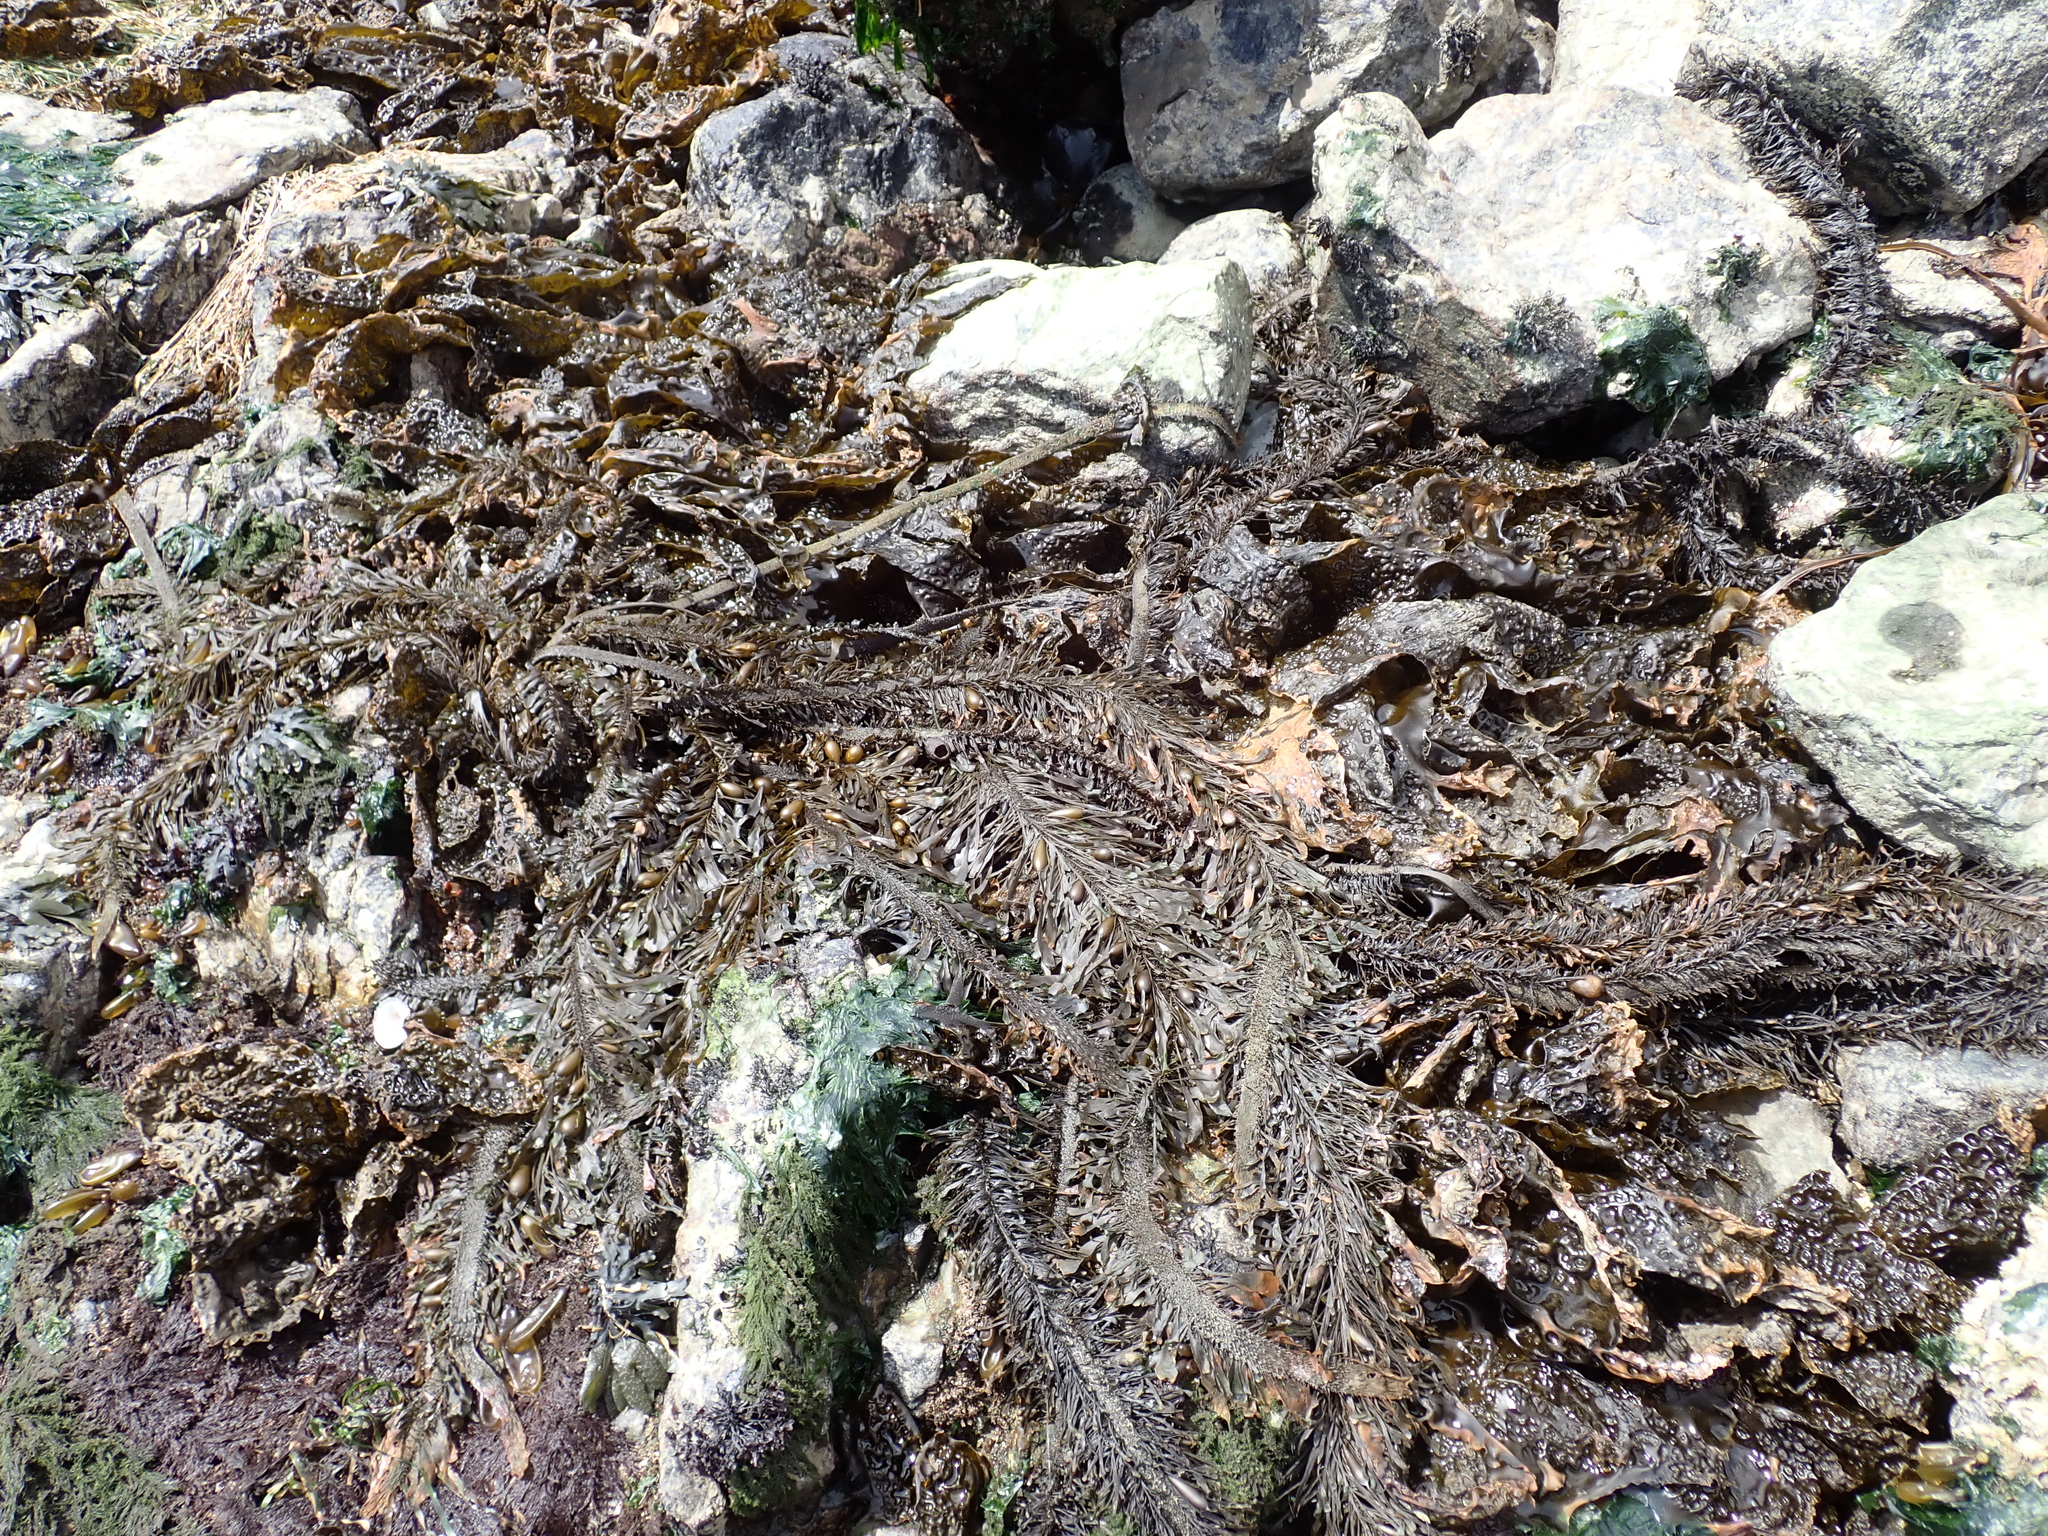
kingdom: Chromista
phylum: Ochrophyta
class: Phaeophyceae
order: Laminariales
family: Lessoniaceae
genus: Egregia
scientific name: Egregia menziesii
